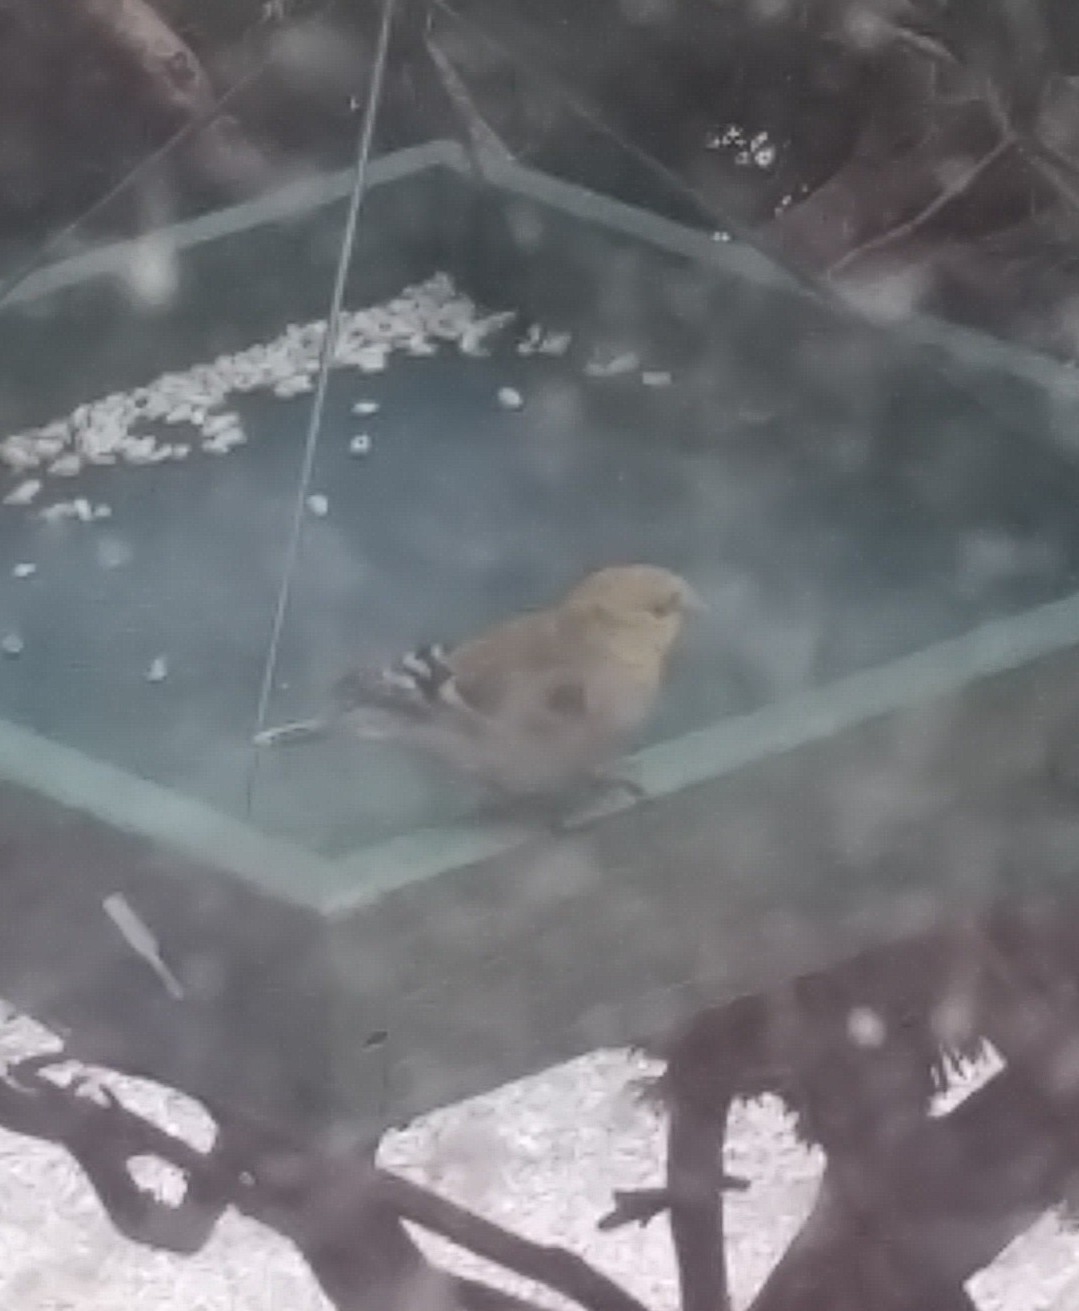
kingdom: Animalia
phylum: Chordata
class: Aves
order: Passeriformes
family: Fringillidae
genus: Spinus
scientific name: Spinus tristis
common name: American goldfinch
